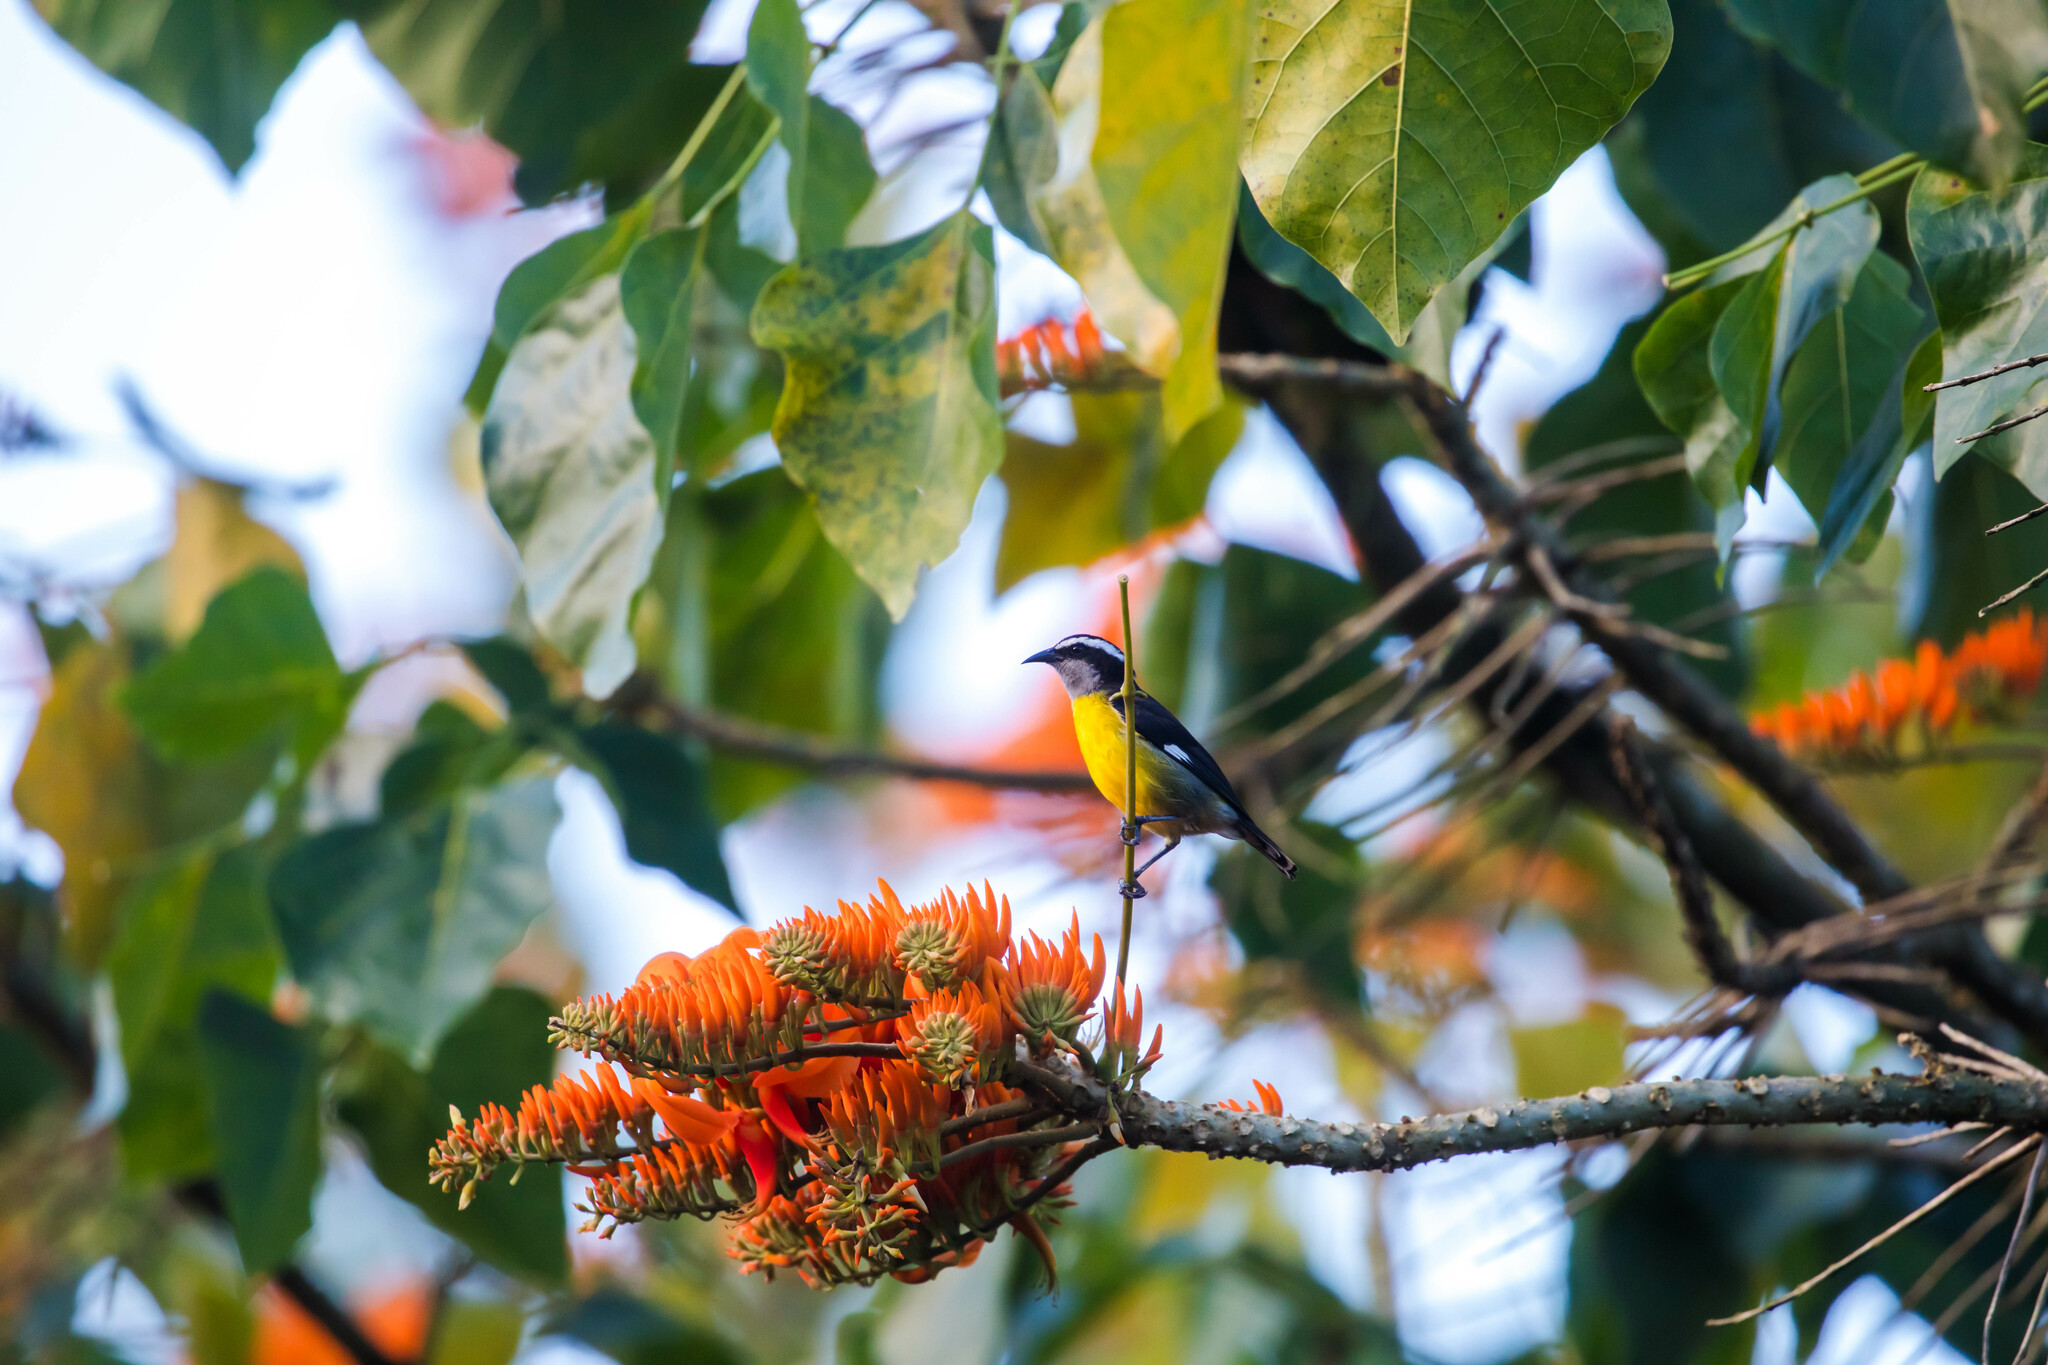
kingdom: Animalia
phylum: Chordata
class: Aves
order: Passeriformes
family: Thraupidae
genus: Coereba
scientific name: Coereba flaveola
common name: Bananaquit
